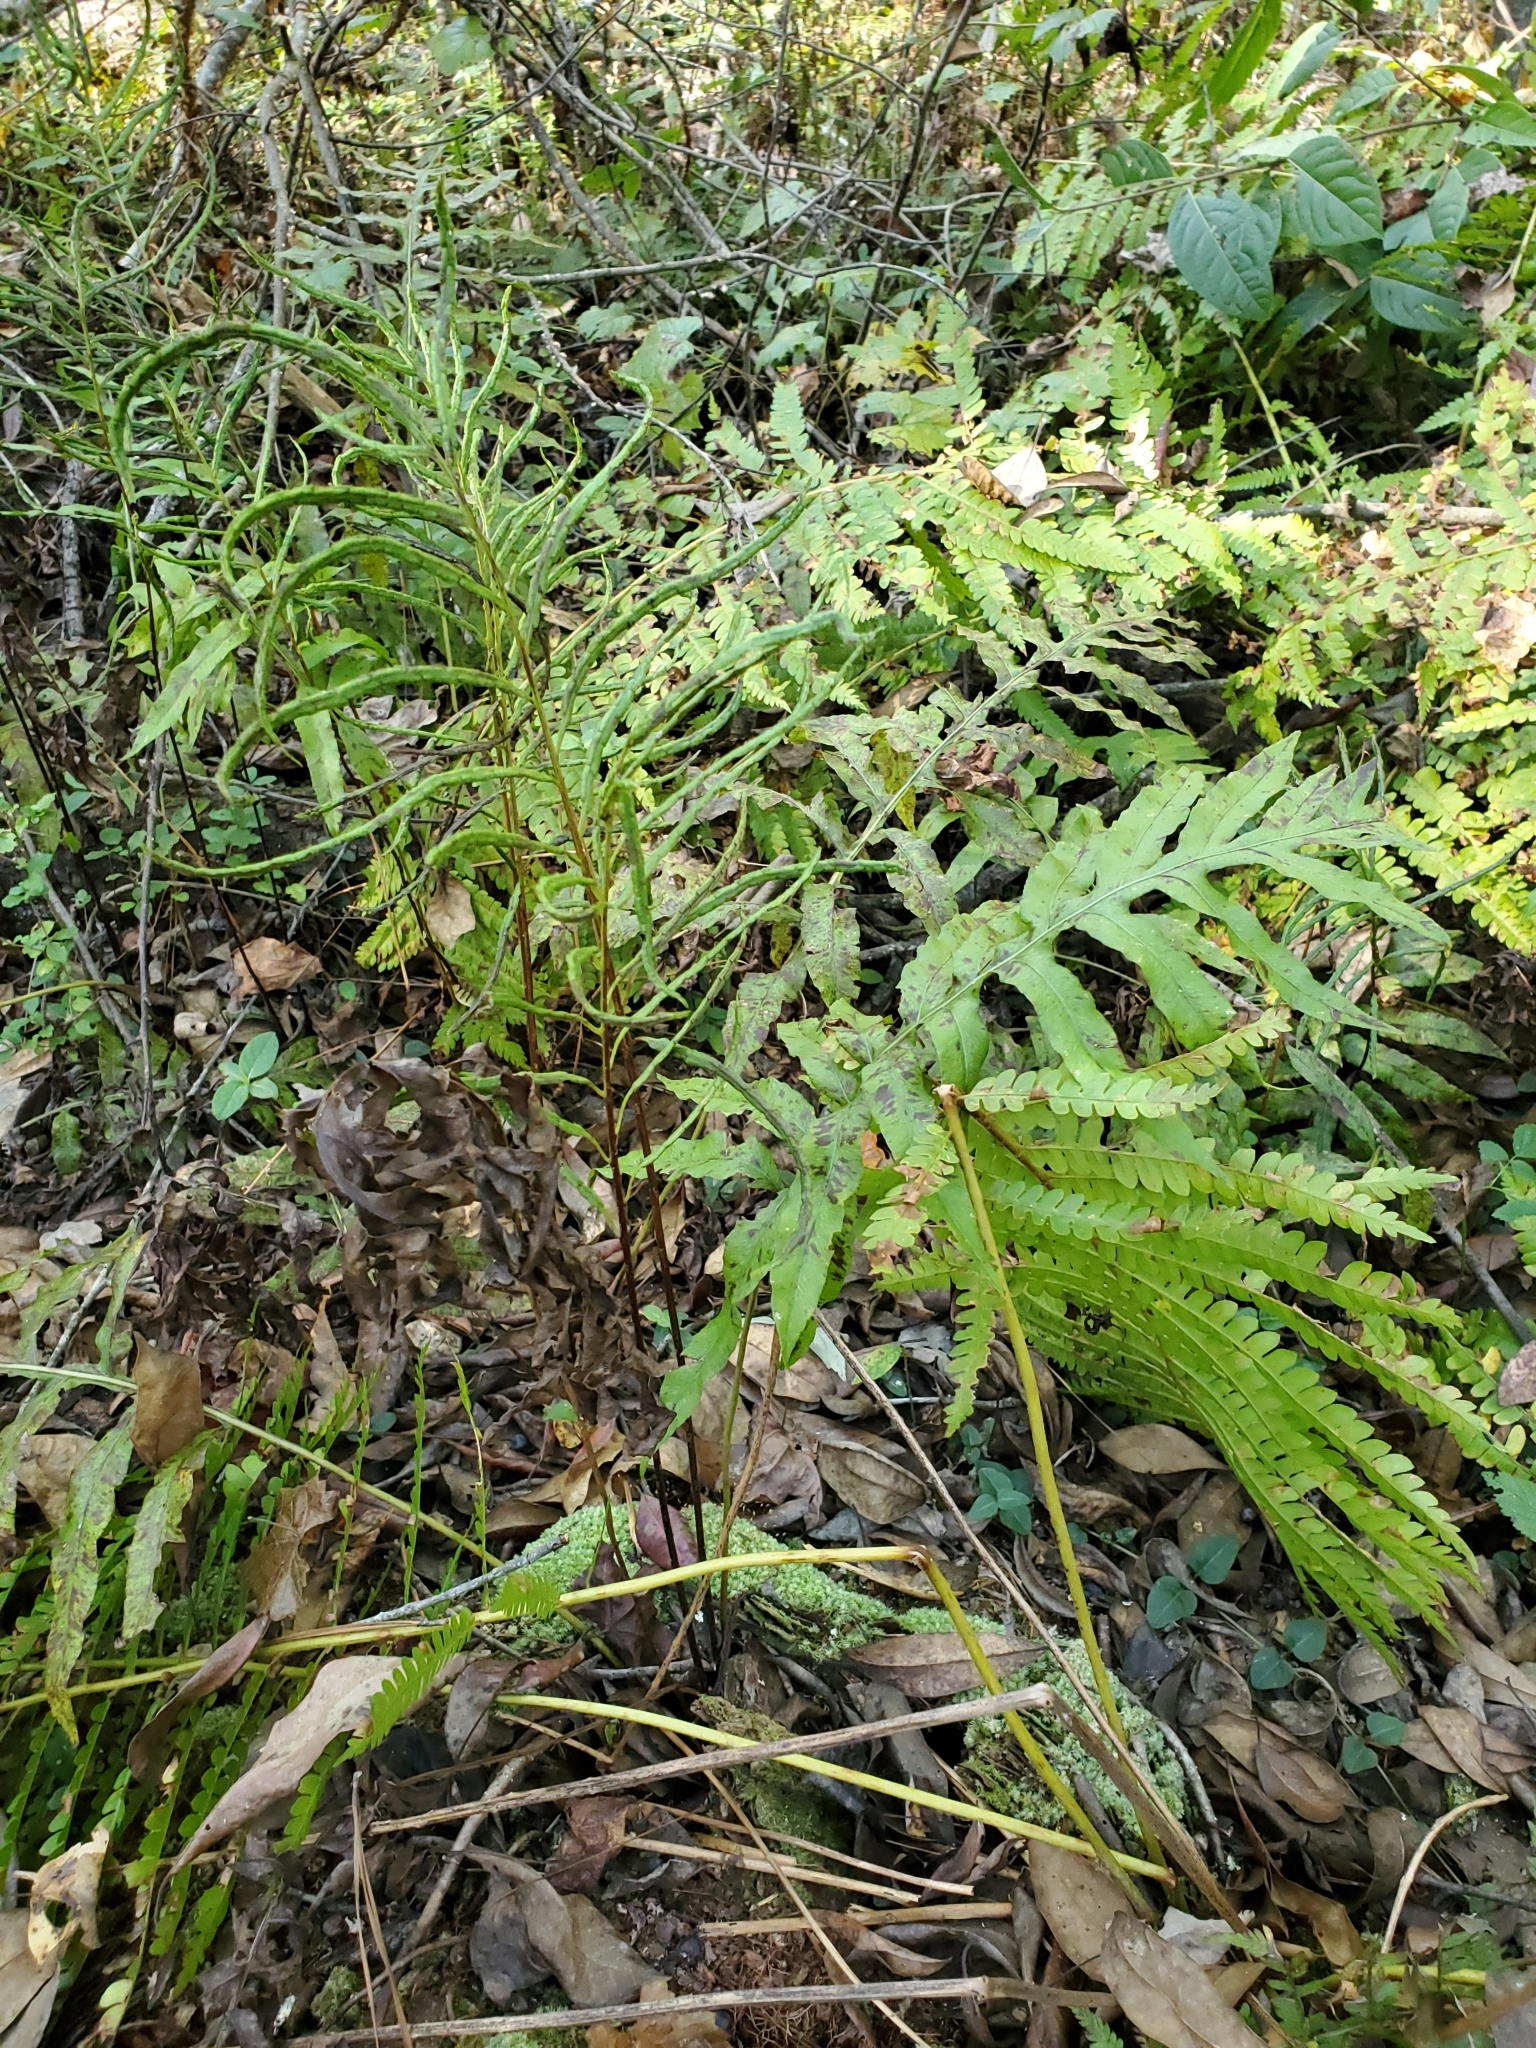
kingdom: Plantae
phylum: Tracheophyta
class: Polypodiopsida
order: Polypodiales
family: Blechnaceae
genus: Lorinseria
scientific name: Lorinseria areolata
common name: Dwarf chain fern
